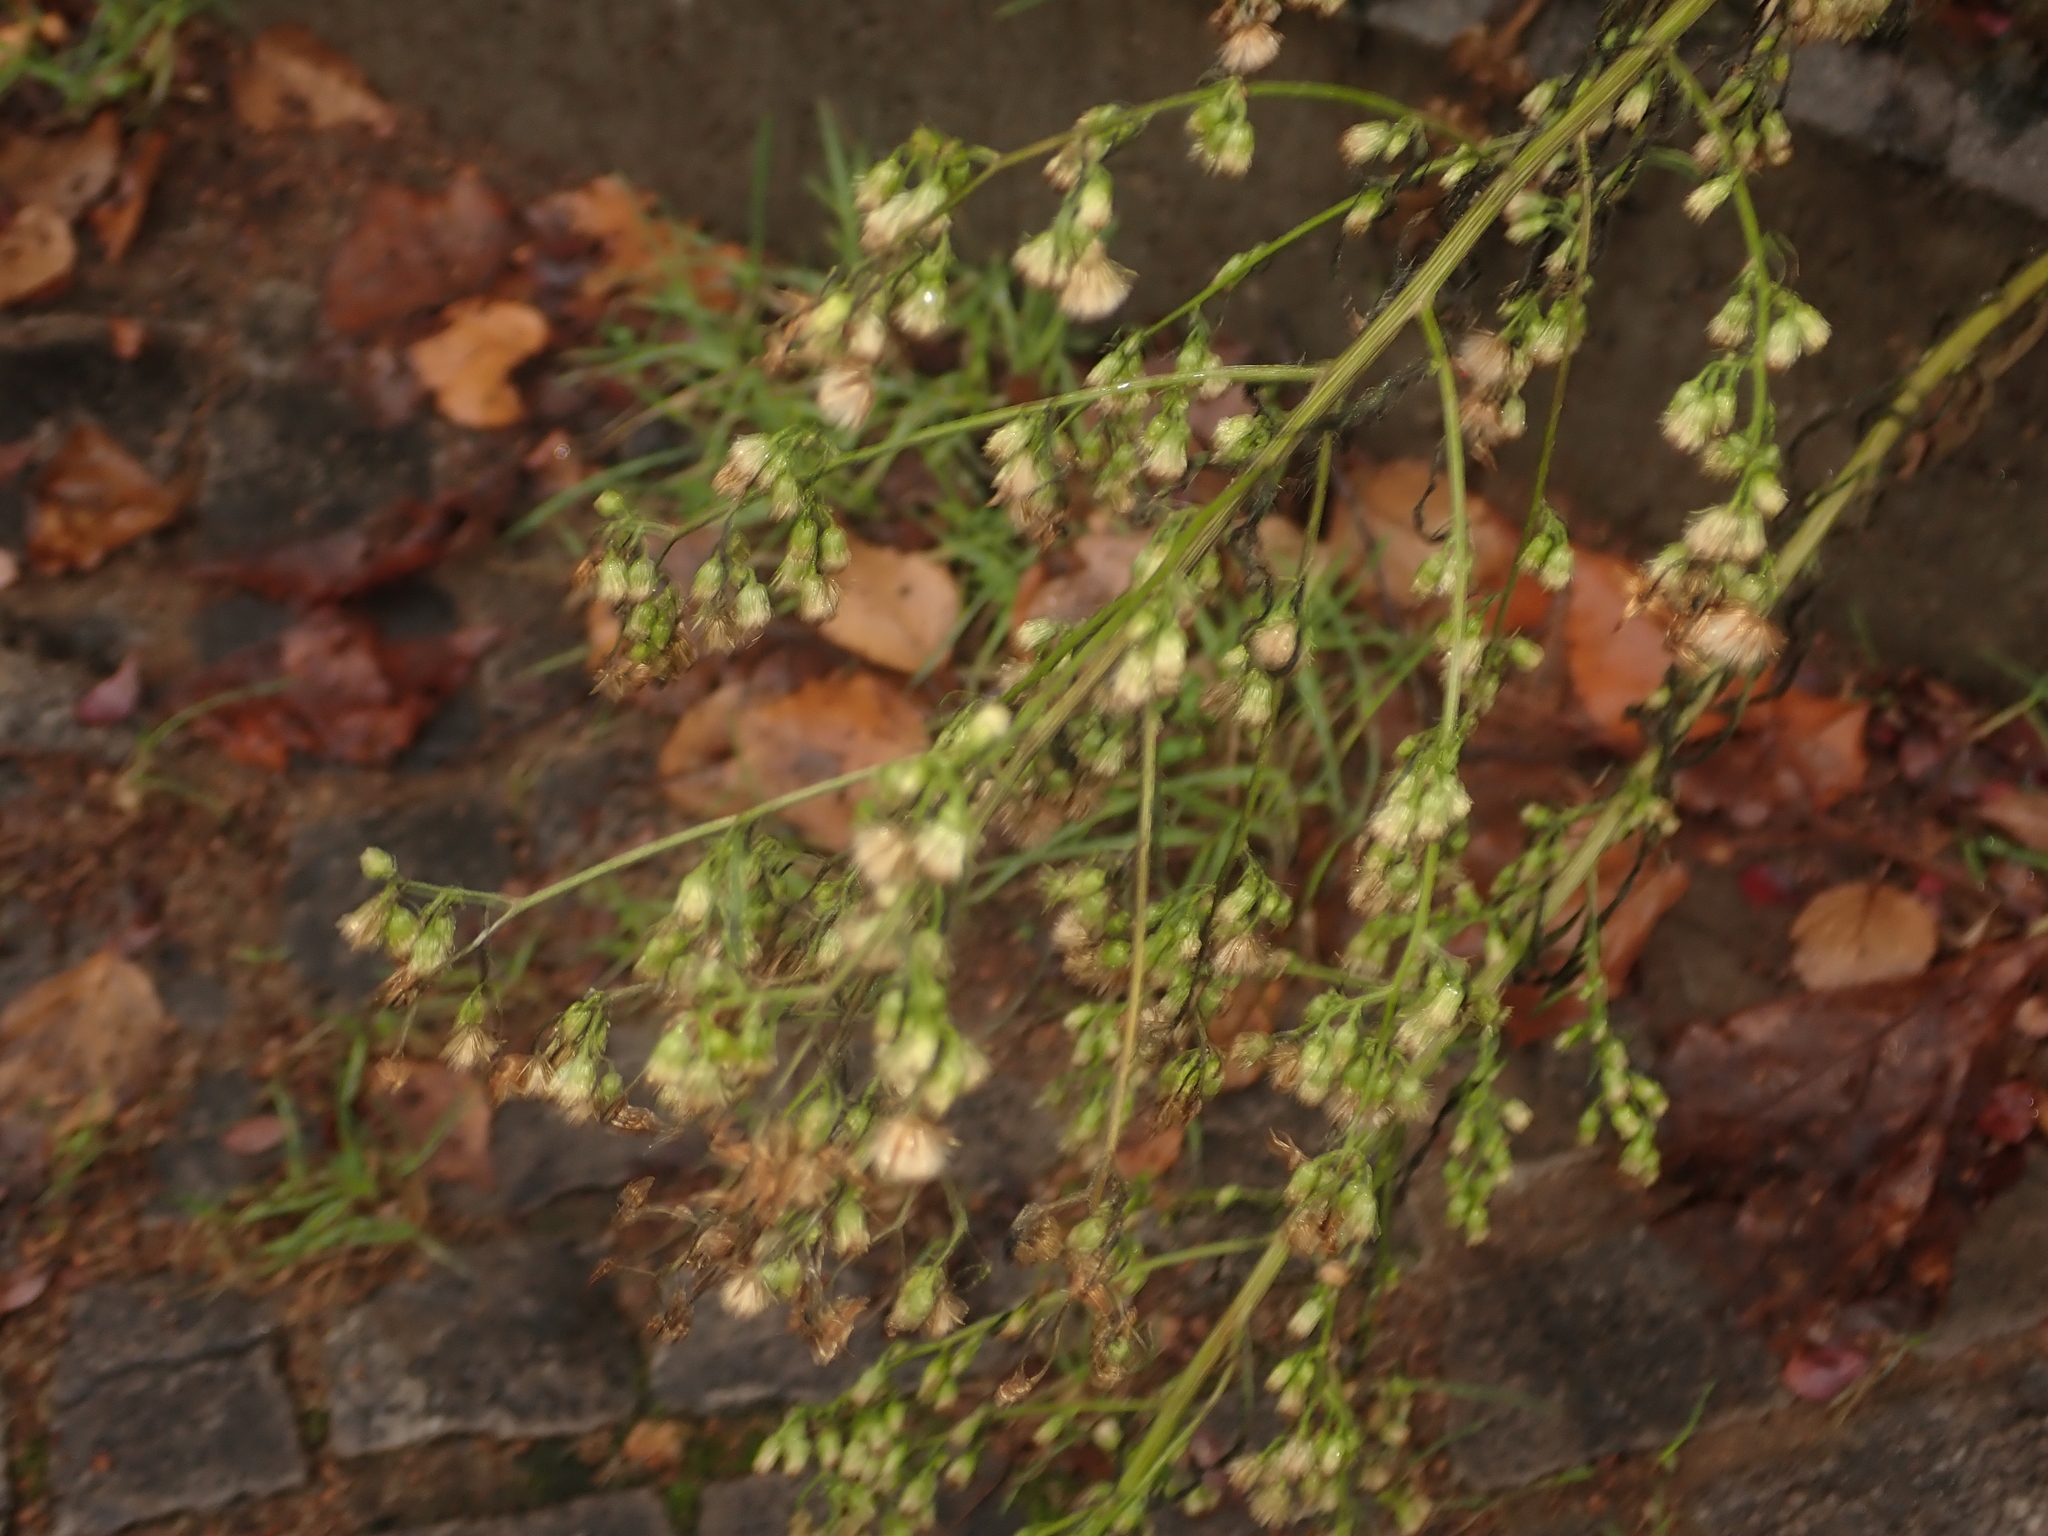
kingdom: Plantae
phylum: Tracheophyta
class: Magnoliopsida
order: Asterales
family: Asteraceae
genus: Erigeron
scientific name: Erigeron canadensis
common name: Canadian fleabane
